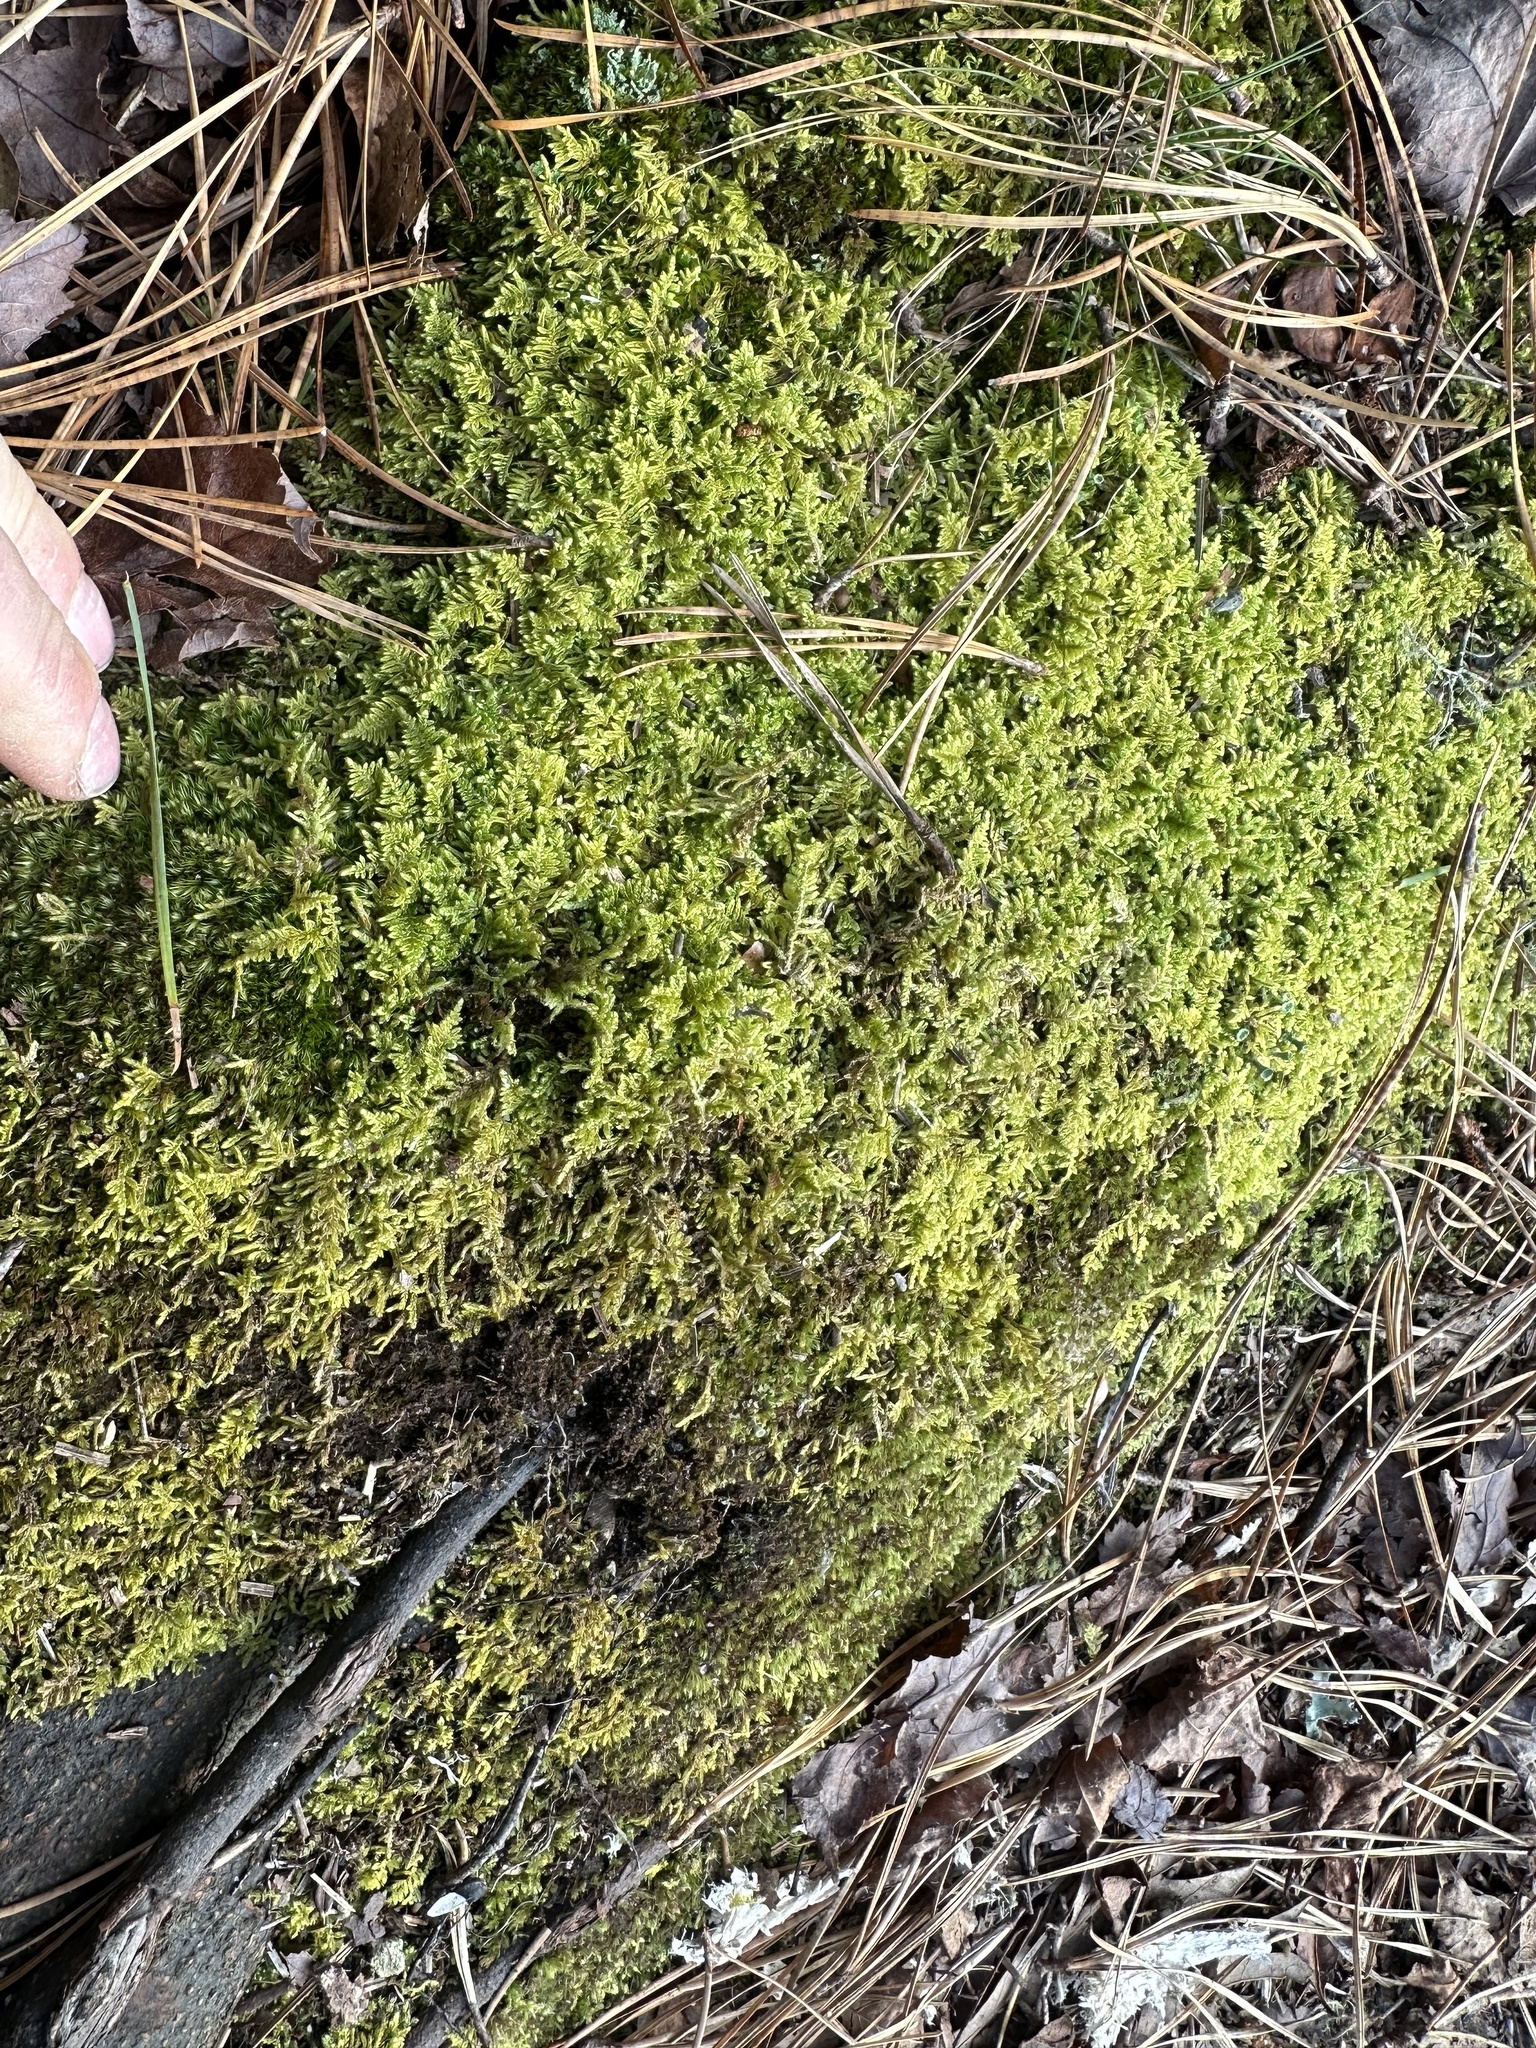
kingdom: Plantae
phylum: Bryophyta
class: Bryopsida
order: Hypnales
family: Callicladiaceae
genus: Callicladium
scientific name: Callicladium imponens
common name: Brocade moss
